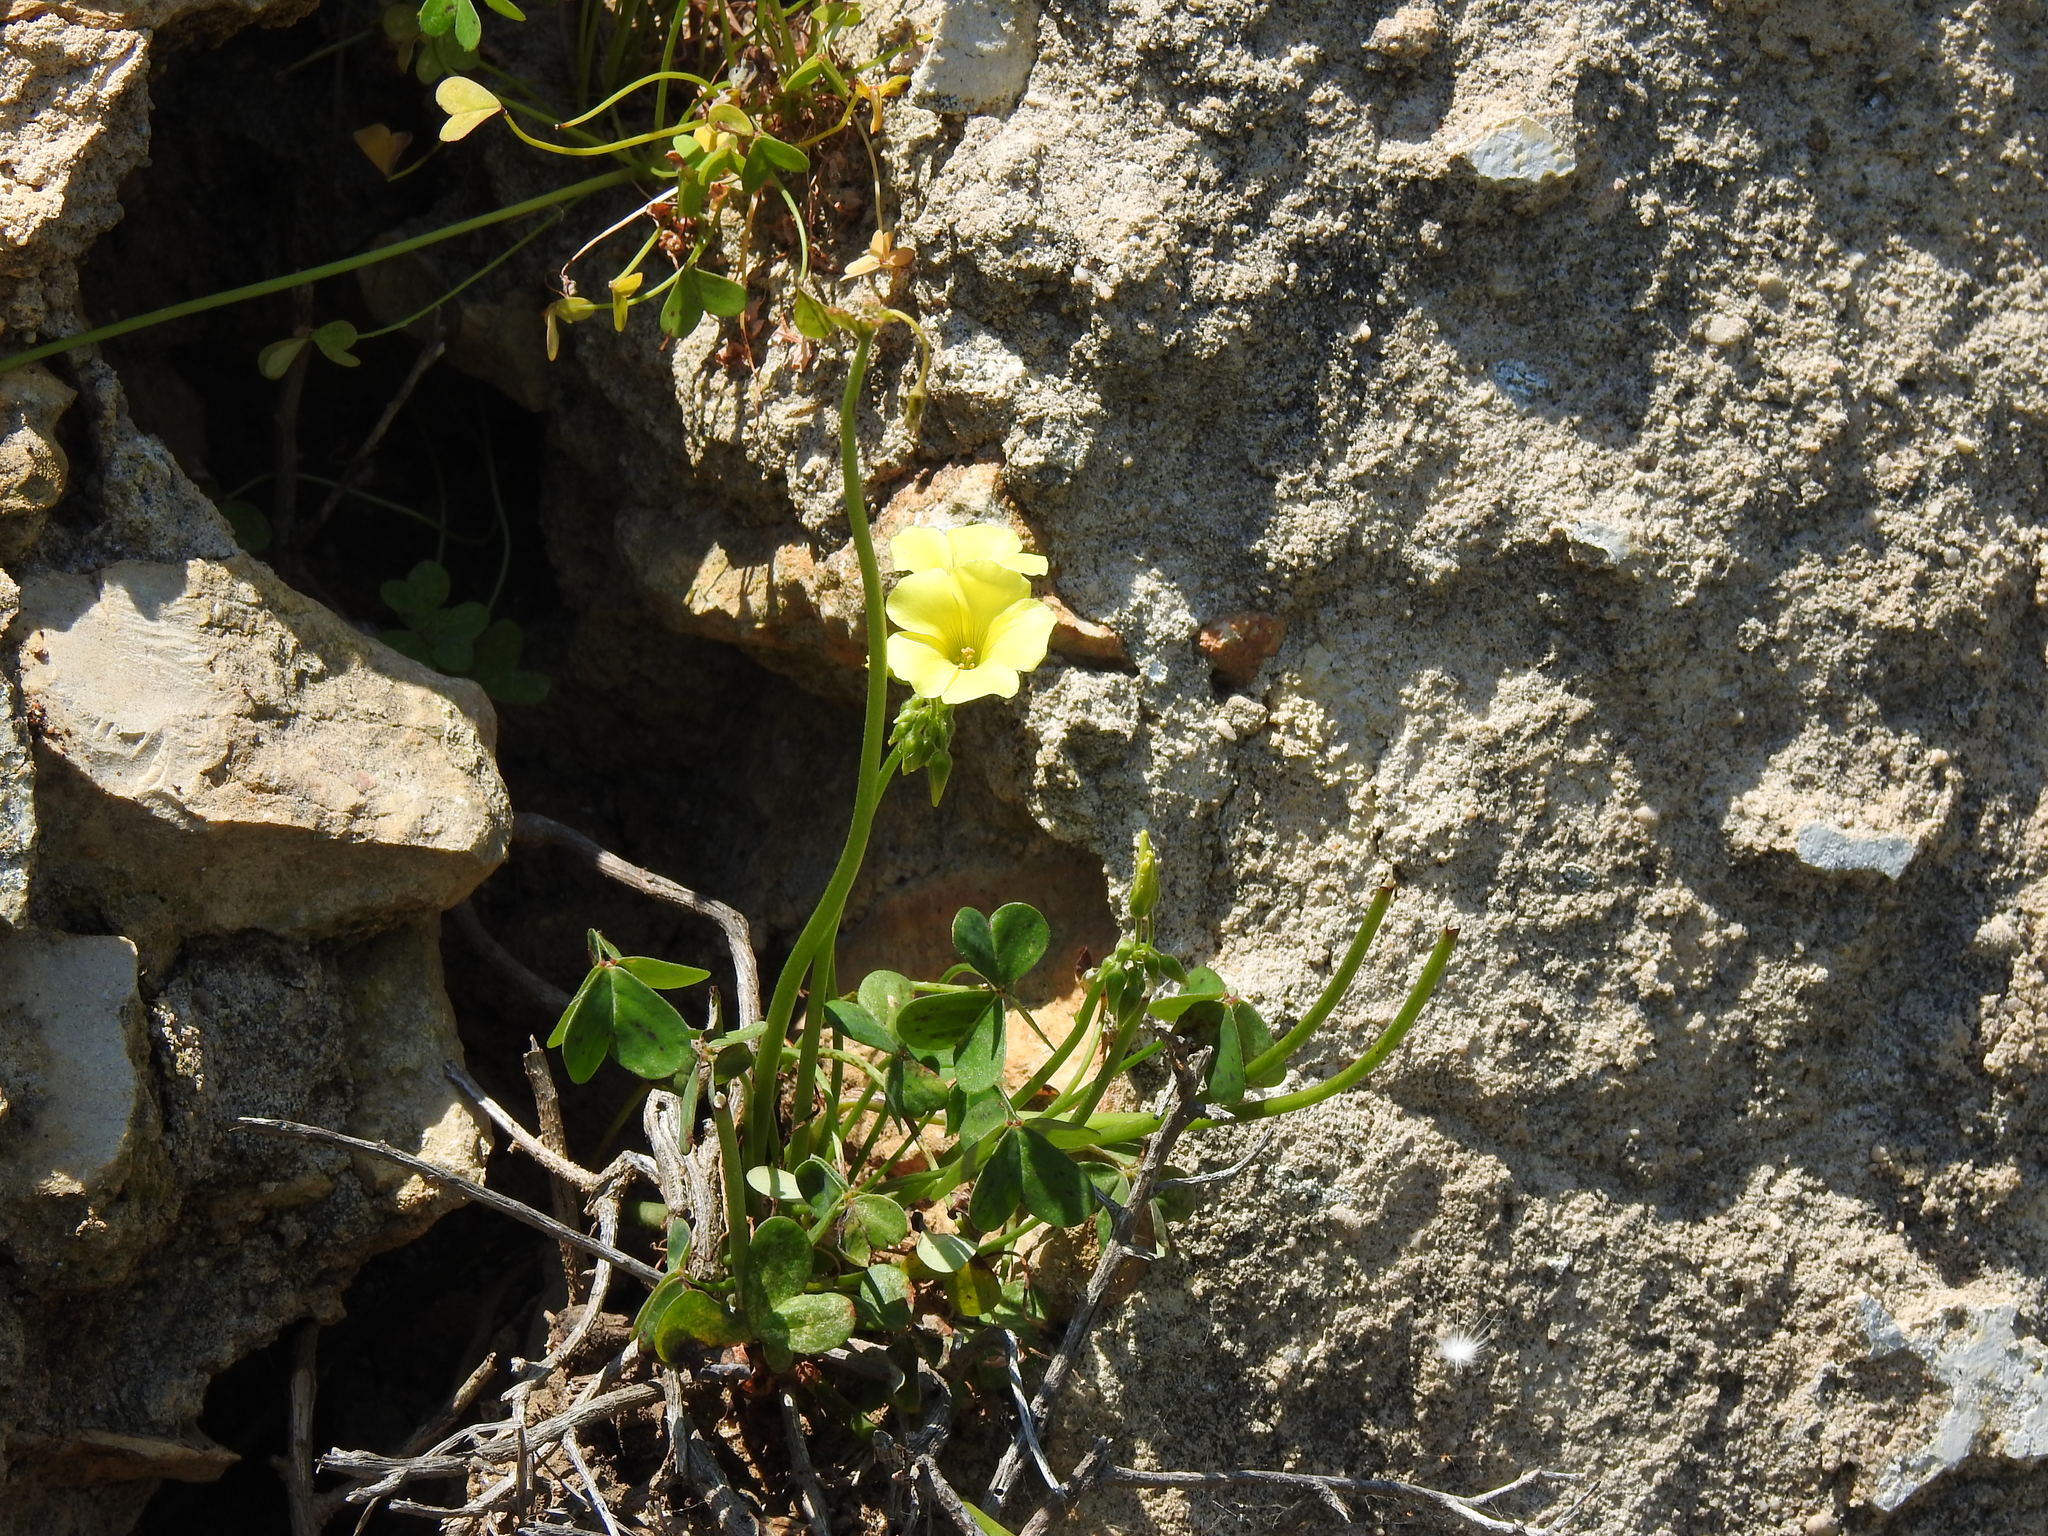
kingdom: Plantae
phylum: Tracheophyta
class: Magnoliopsida
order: Oxalidales
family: Oxalidaceae
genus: Oxalis
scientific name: Oxalis pes-caprae
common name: Bermuda-buttercup
